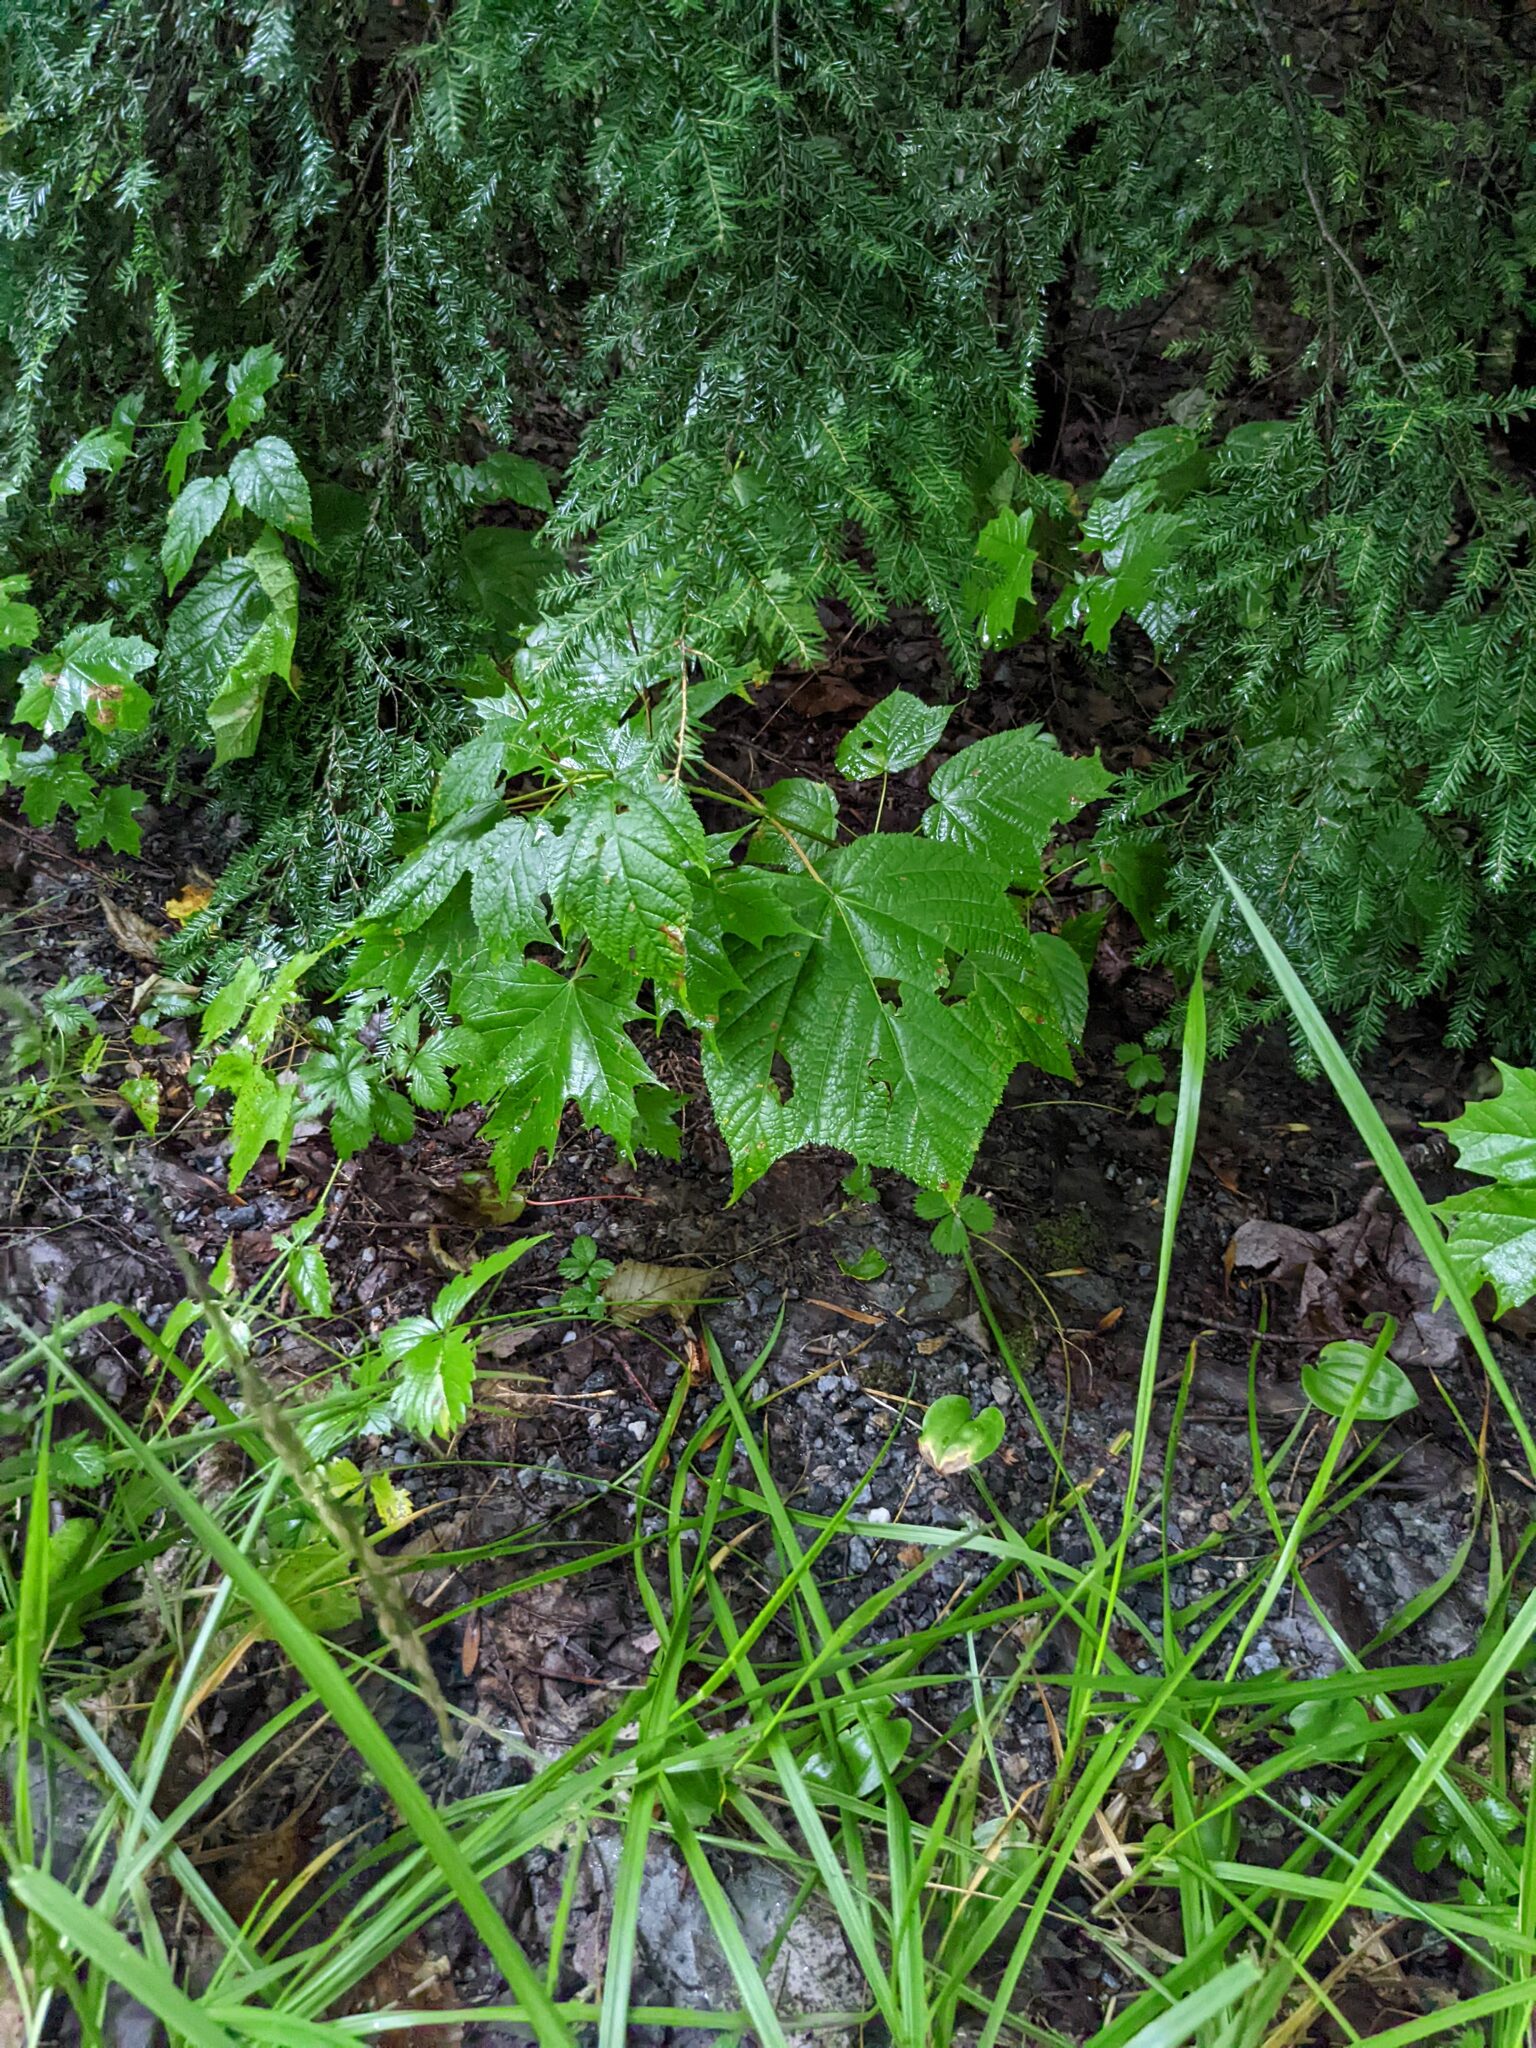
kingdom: Plantae
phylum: Tracheophyta
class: Magnoliopsida
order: Sapindales
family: Sapindaceae
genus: Acer
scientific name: Acer pensylvanicum
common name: Moosewood
